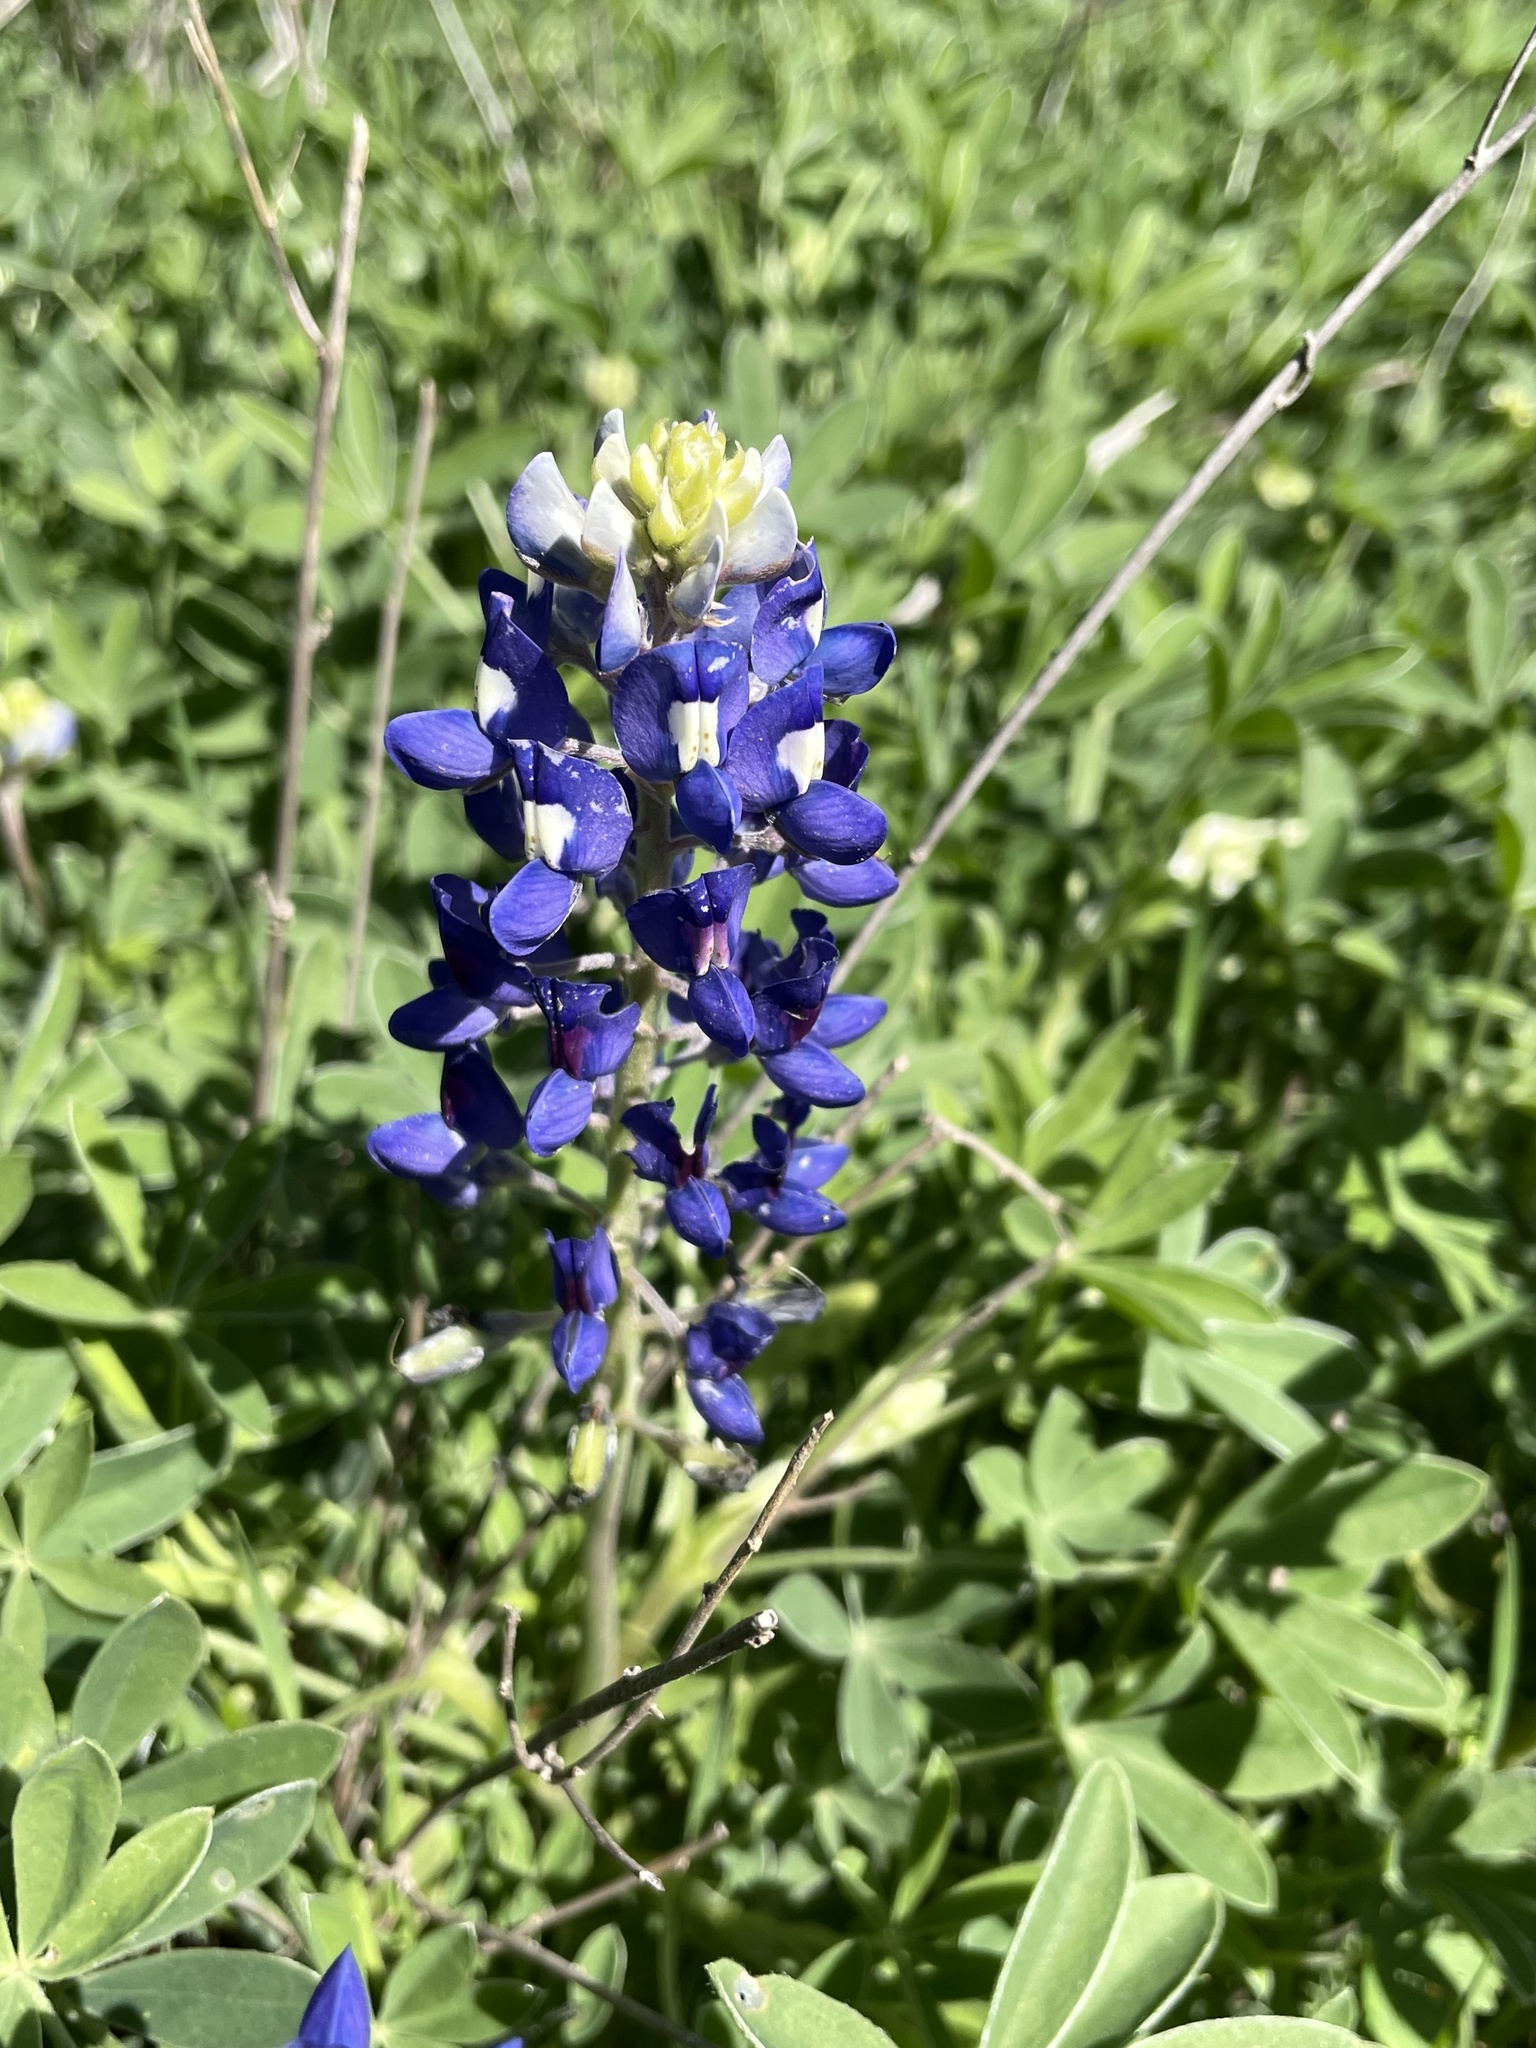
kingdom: Plantae
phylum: Tracheophyta
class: Magnoliopsida
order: Fabales
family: Fabaceae
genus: Lupinus
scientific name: Lupinus texensis
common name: Texas bluebonnet
